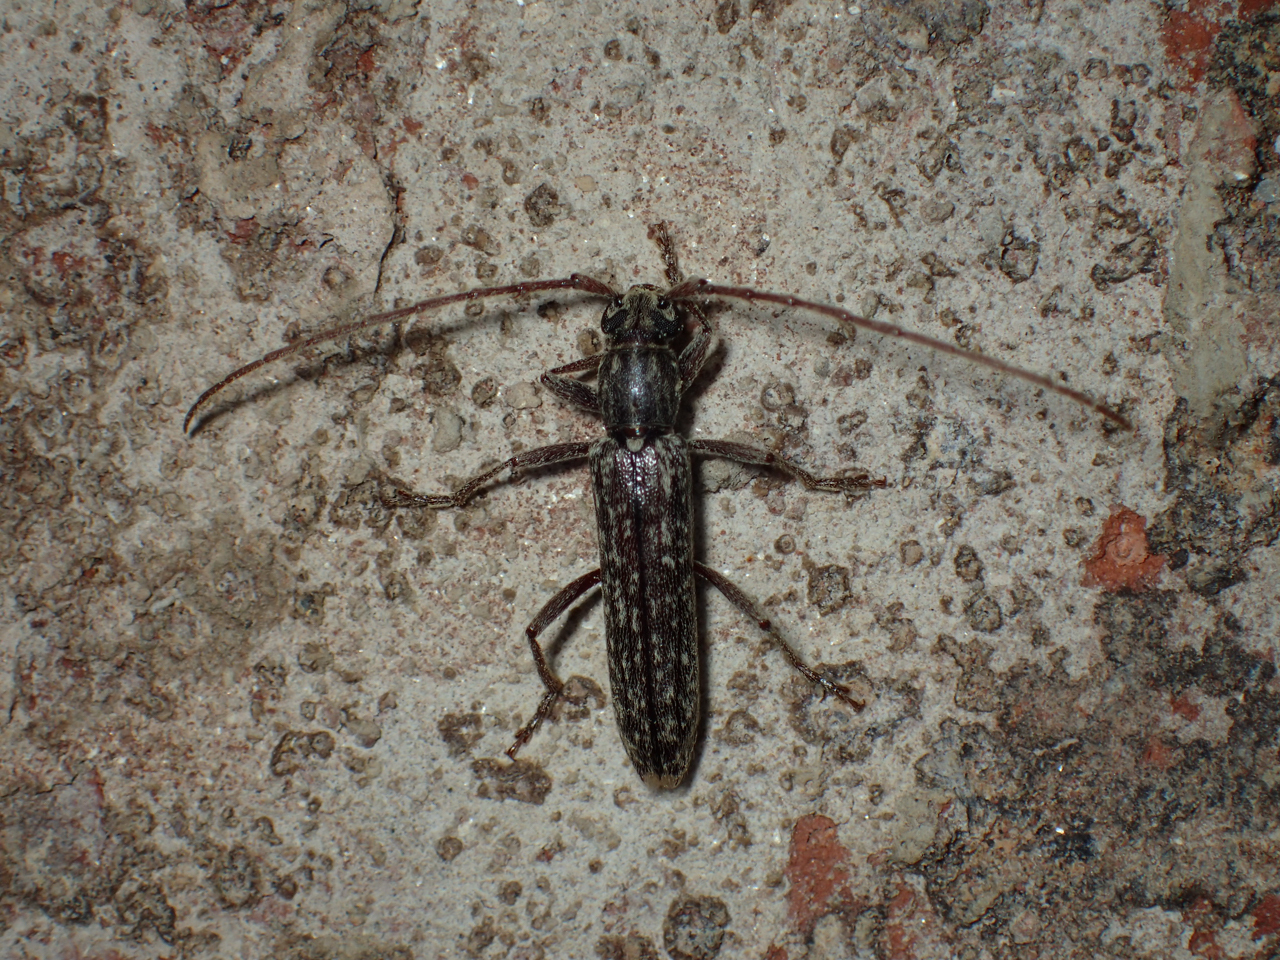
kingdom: Animalia
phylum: Arthropoda
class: Insecta
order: Coleoptera
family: Cerambycidae
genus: Anelaphus
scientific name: Anelaphus villosus
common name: Twig pruner
